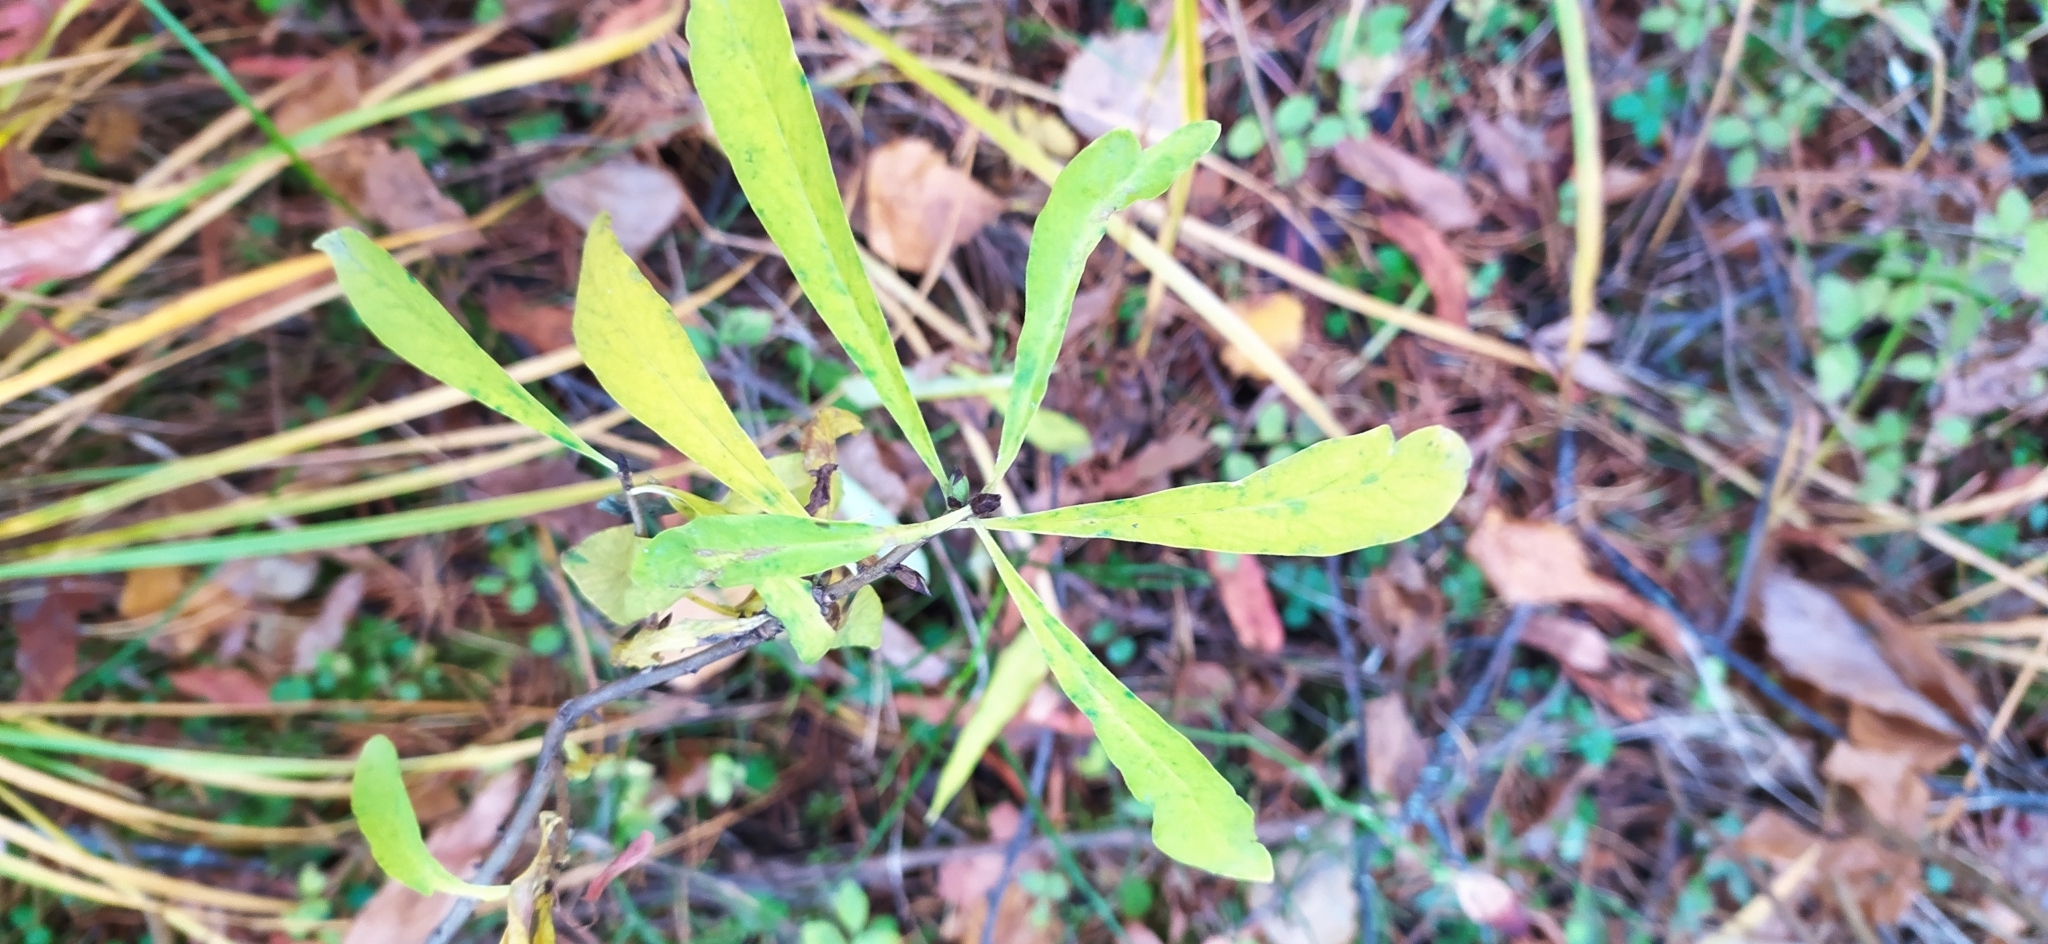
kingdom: Plantae
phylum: Tracheophyta
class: Magnoliopsida
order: Malvales
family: Thymelaeaceae
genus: Daphne
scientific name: Daphne mezereum
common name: Mezereon
